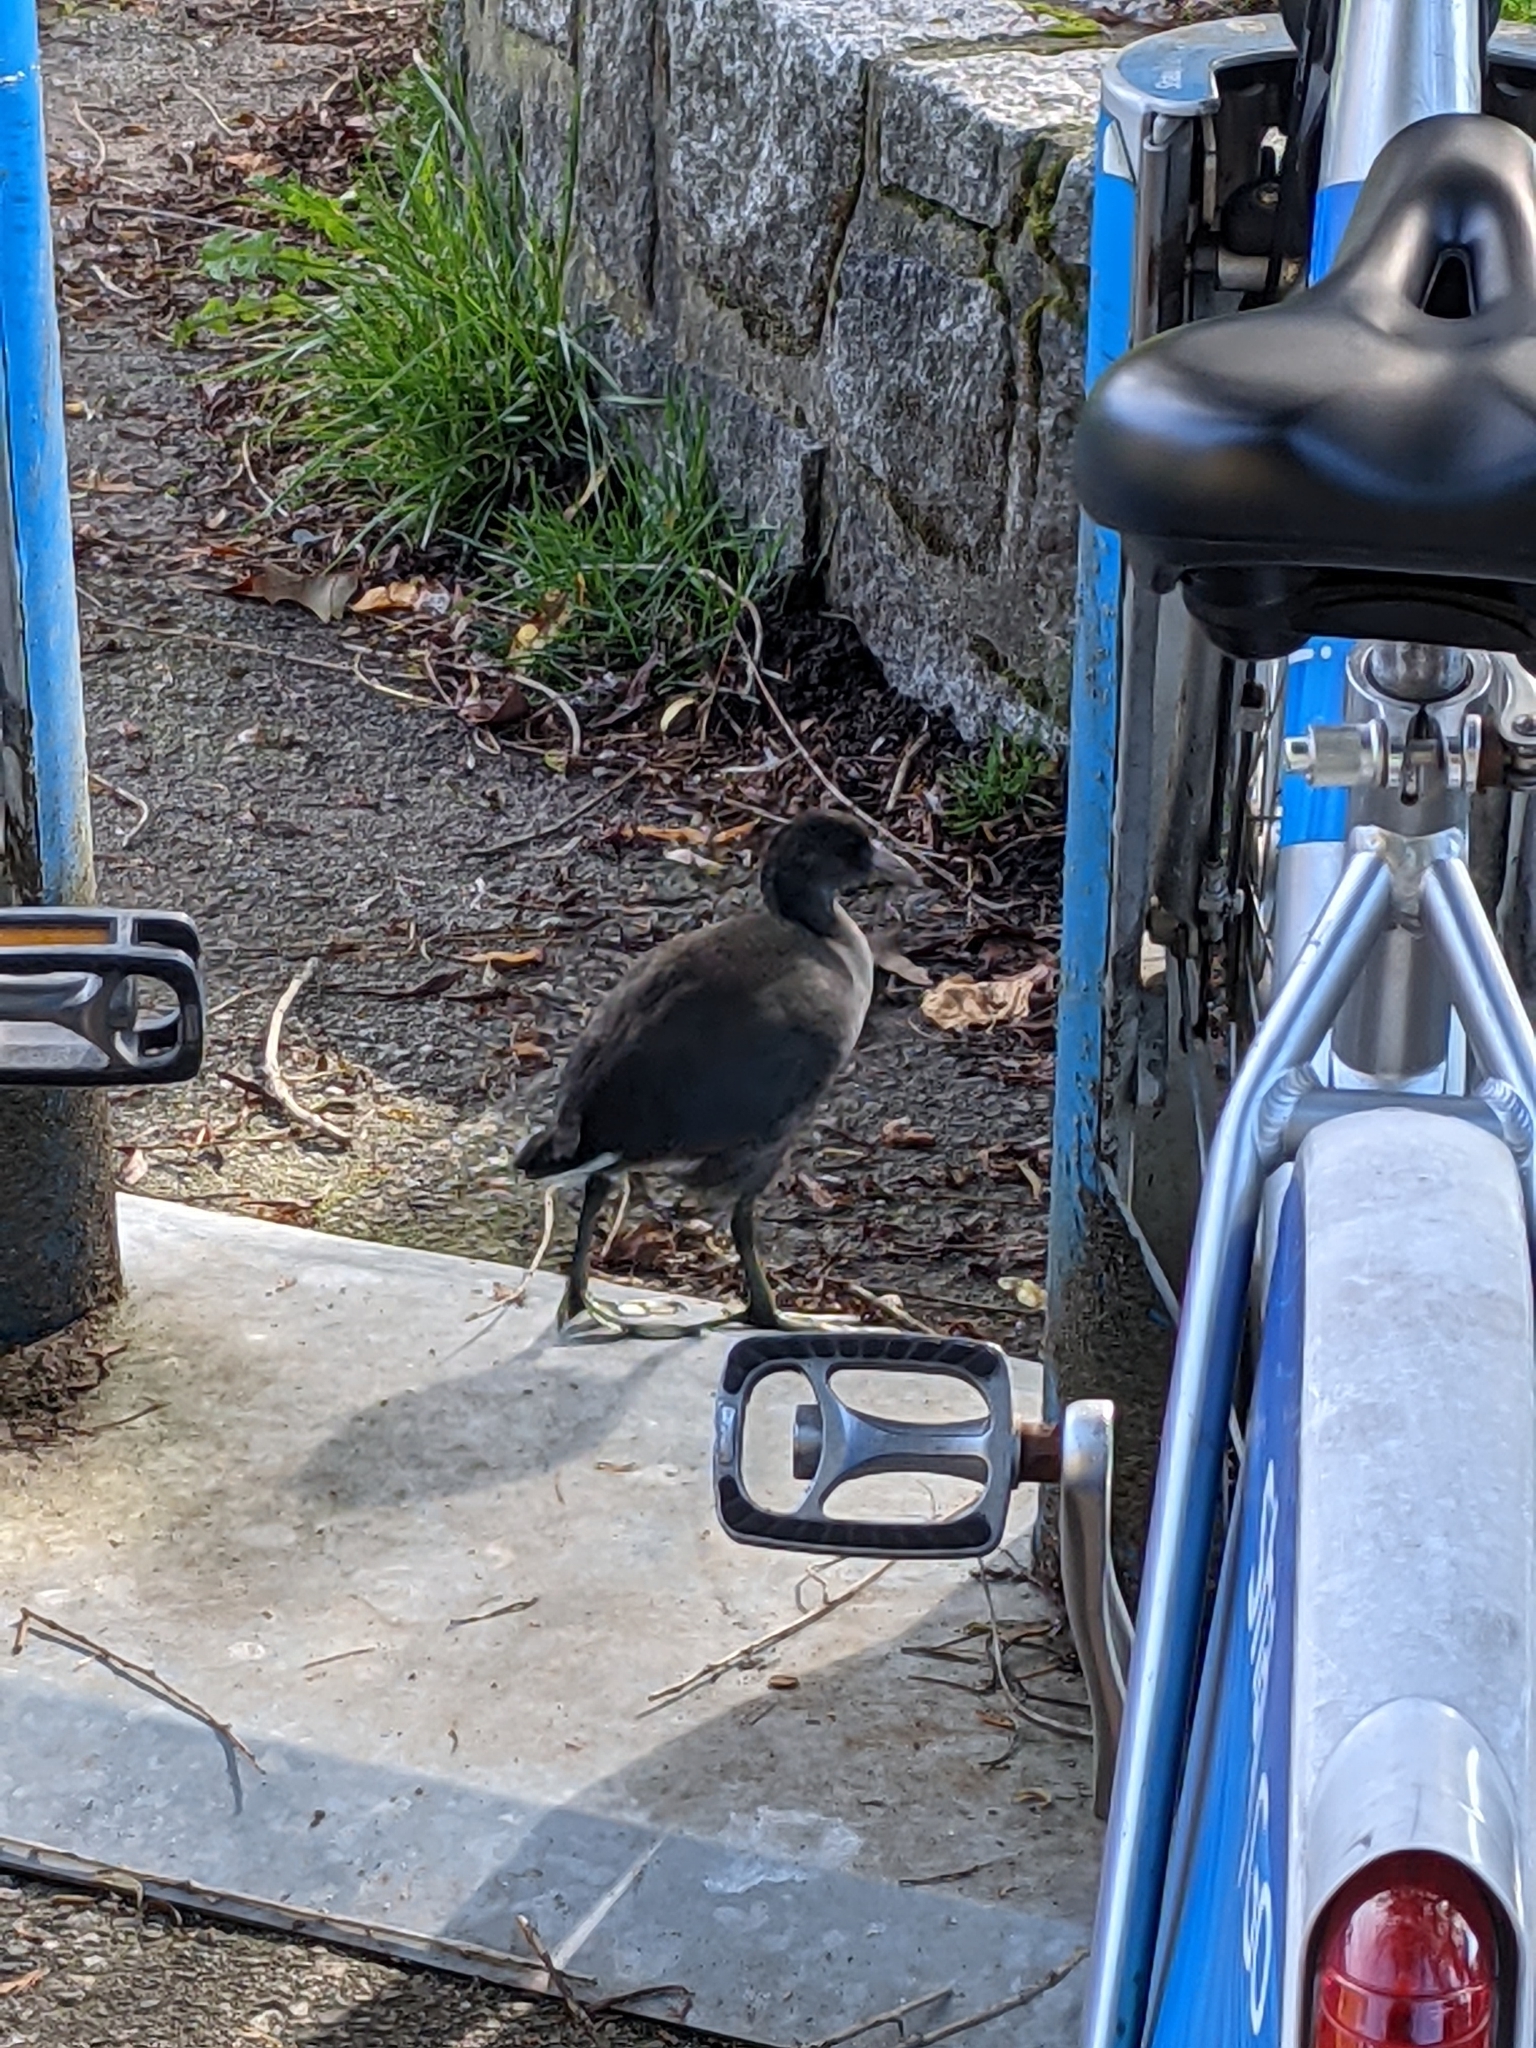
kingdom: Animalia
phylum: Chordata
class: Aves
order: Gruiformes
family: Rallidae
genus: Fulica
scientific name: Fulica americana
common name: American coot
